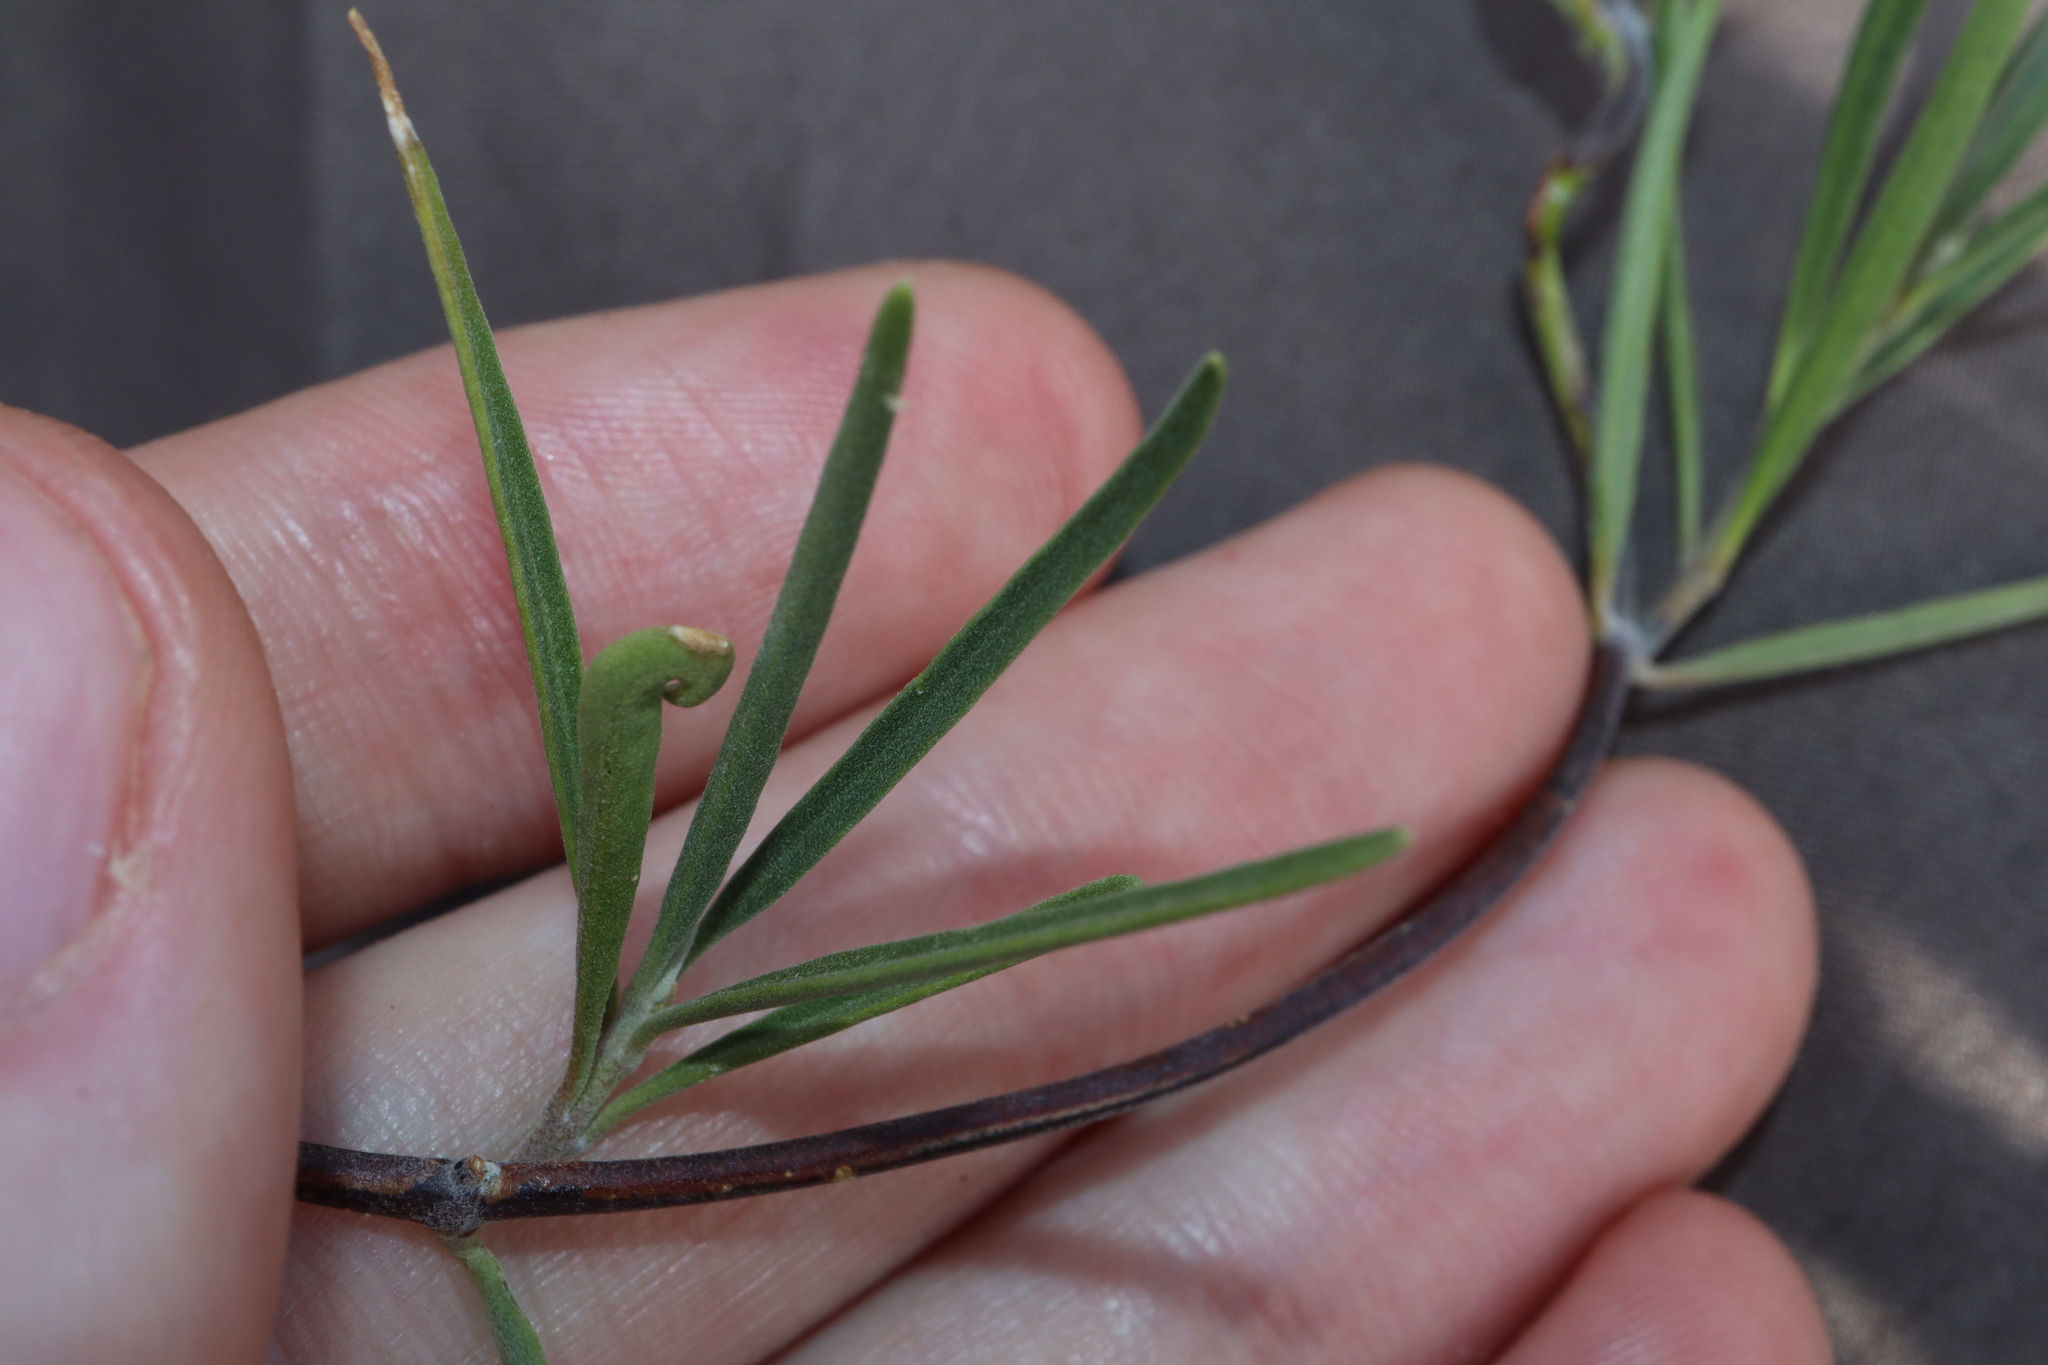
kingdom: Plantae
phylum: Tracheophyta
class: Magnoliopsida
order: Gentianales
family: Apocynaceae
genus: Leichhardtia
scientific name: Leichhardtia australis
